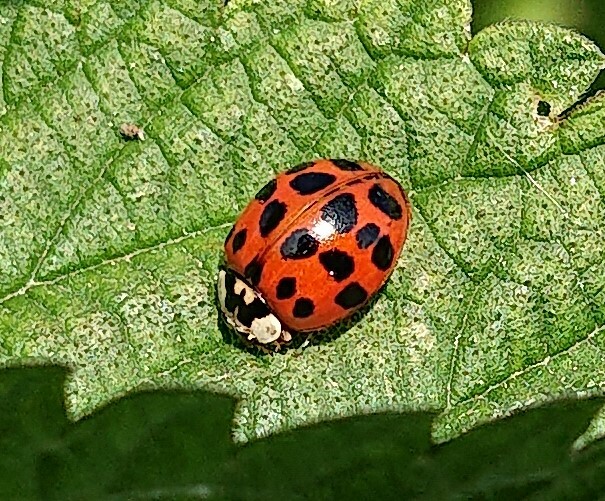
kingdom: Animalia
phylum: Arthropoda
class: Insecta
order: Coleoptera
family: Coccinellidae
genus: Harmonia
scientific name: Harmonia axyridis
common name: Harlequin ladybird
